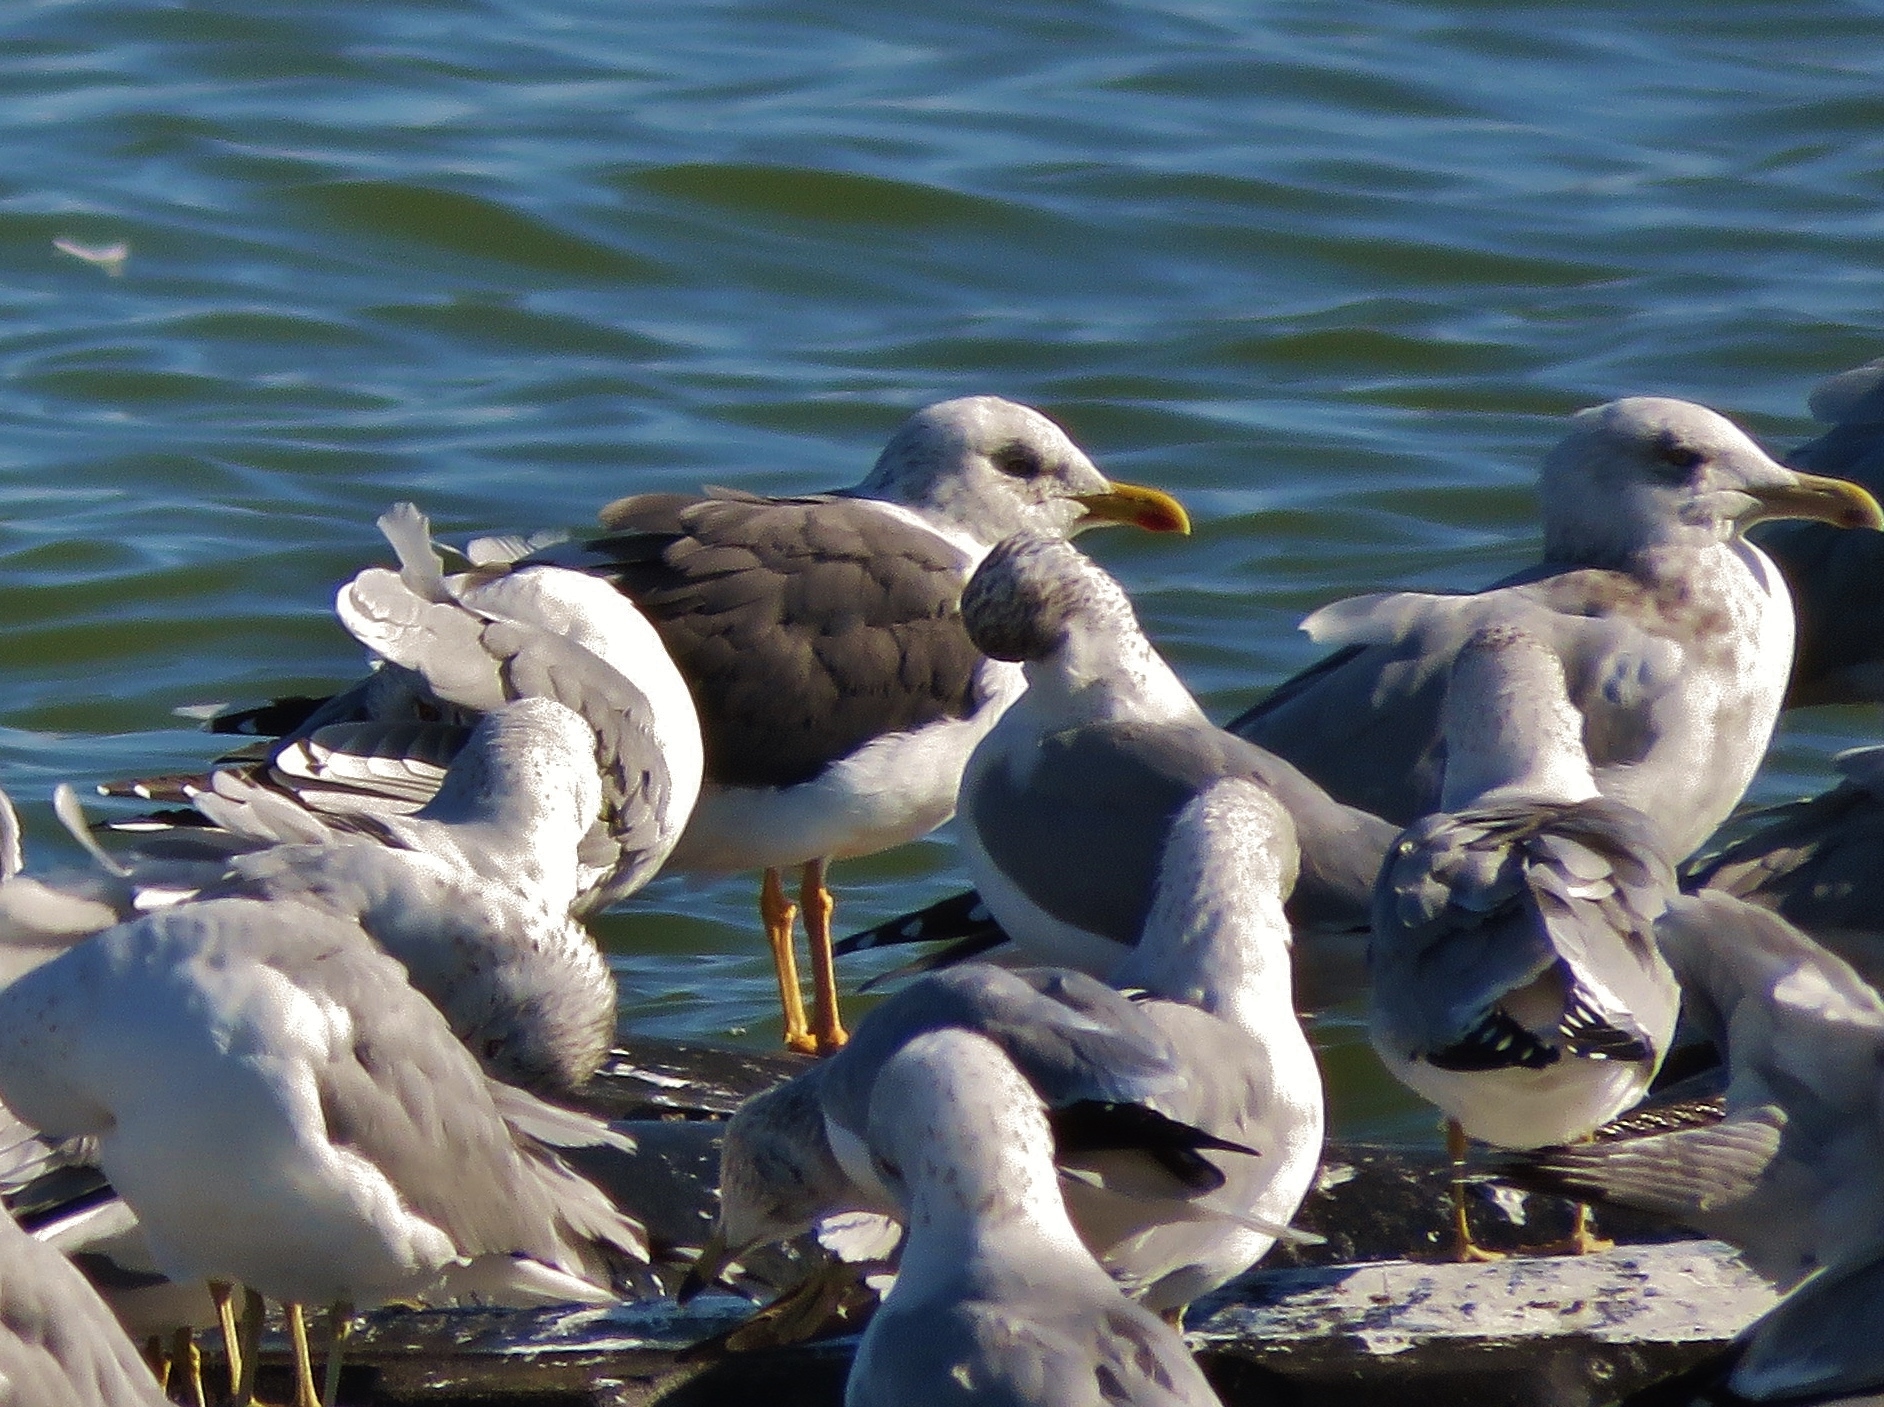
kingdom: Animalia
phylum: Chordata
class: Aves
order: Charadriiformes
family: Laridae
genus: Larus
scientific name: Larus fuscus
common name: Lesser black-backed gull
